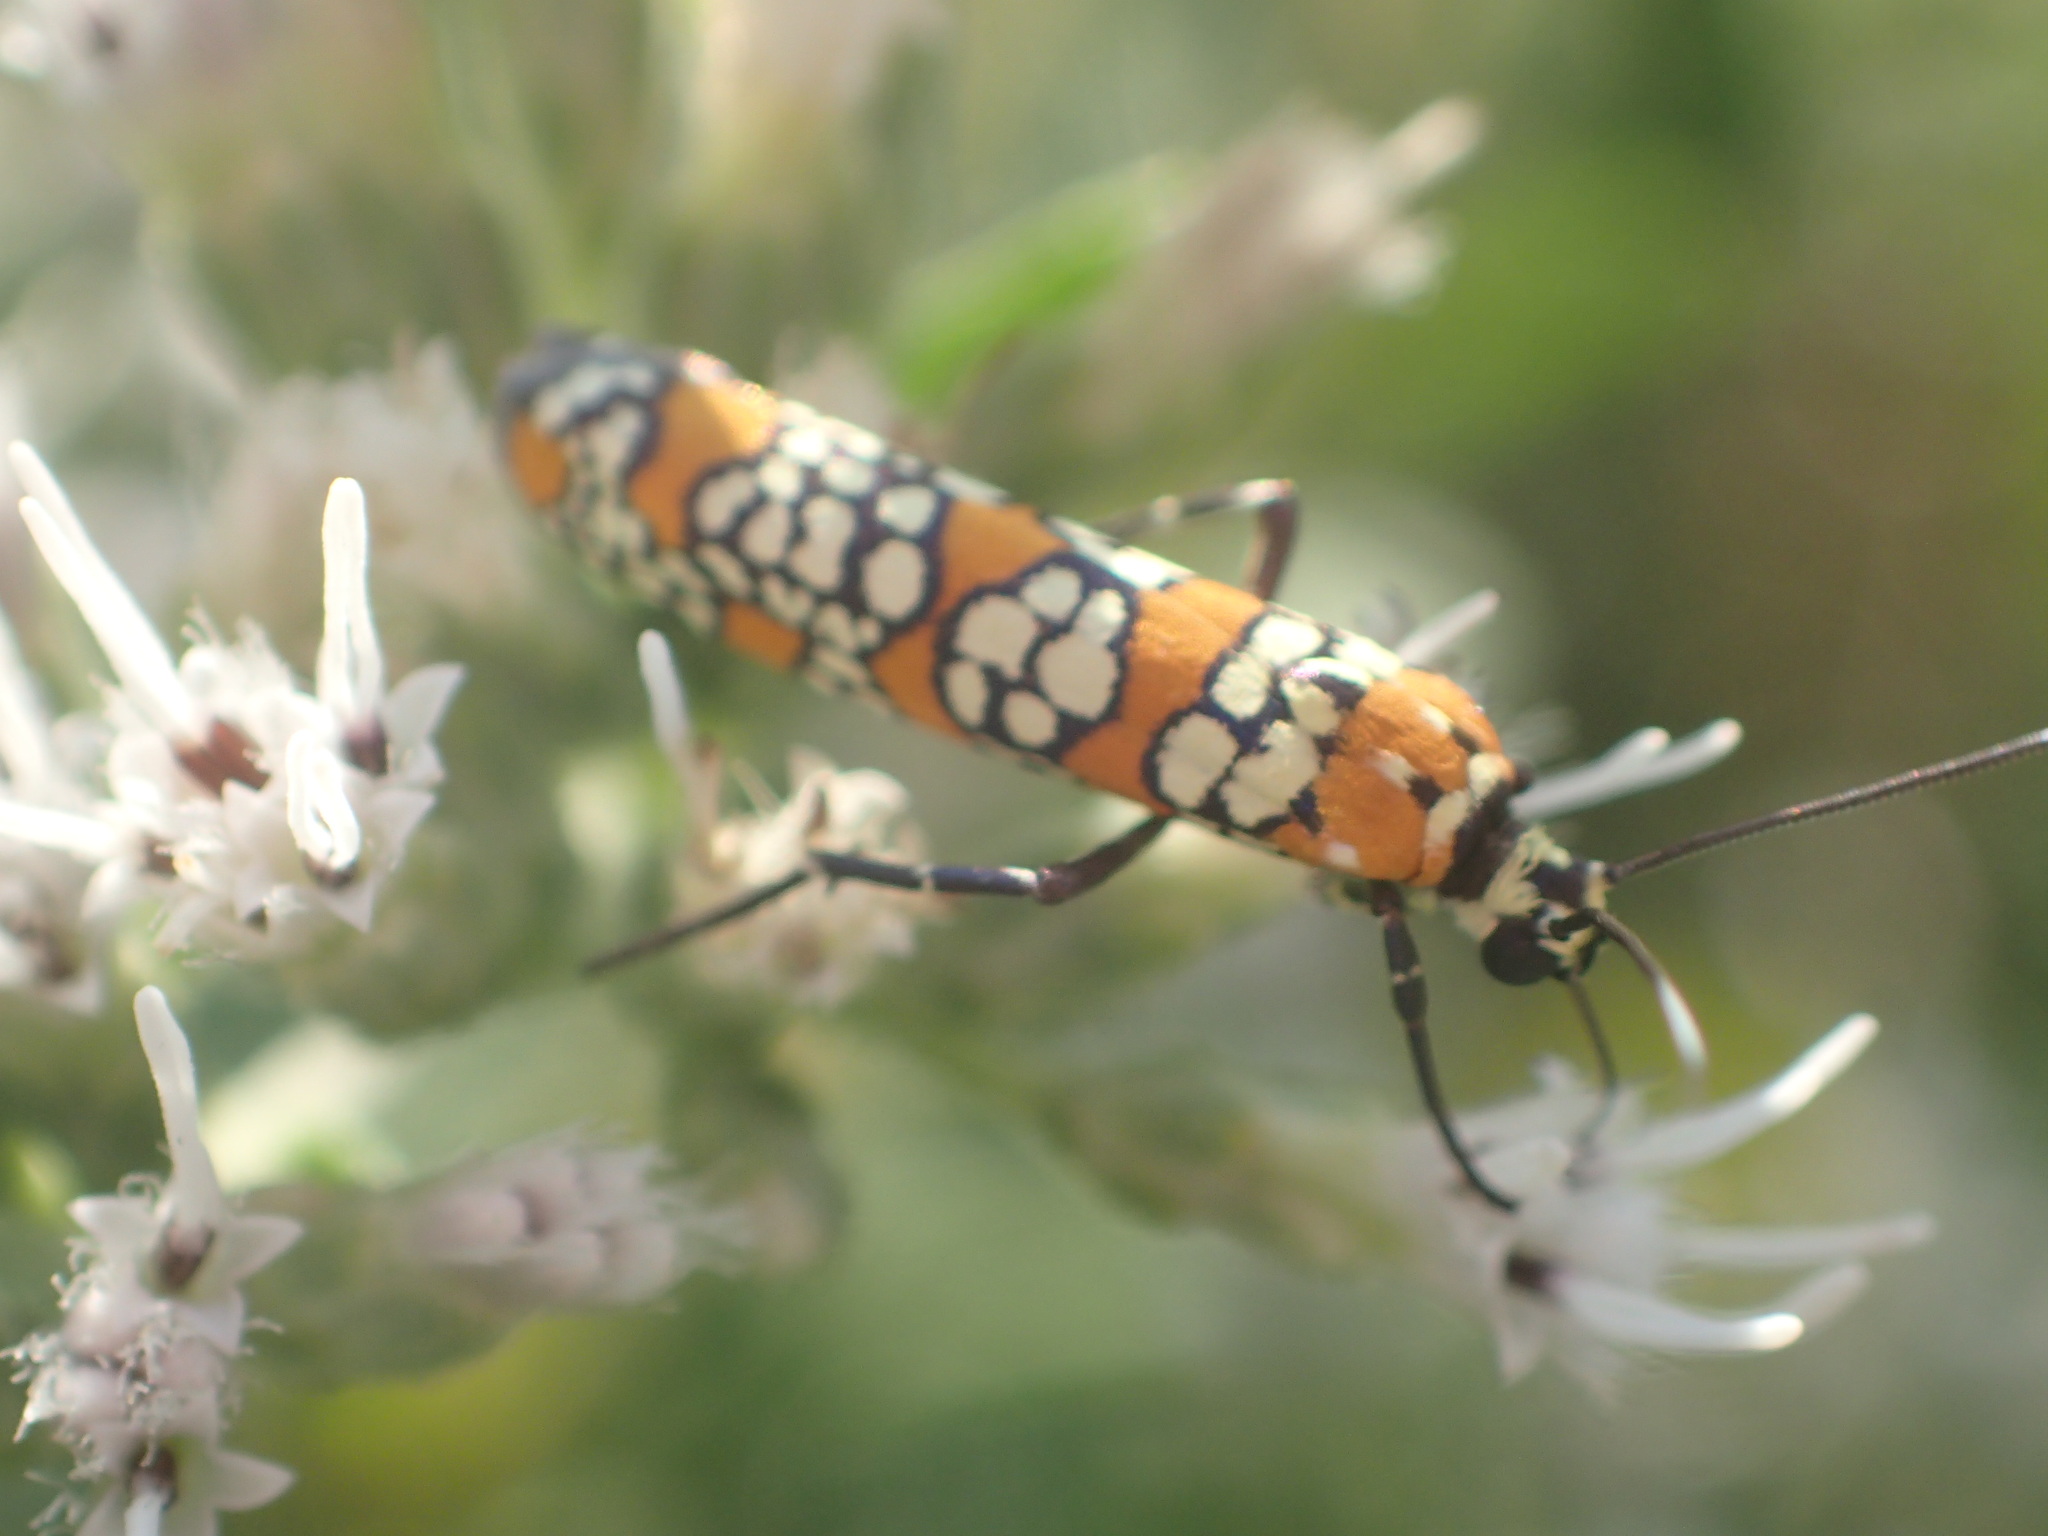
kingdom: Animalia
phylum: Arthropoda
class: Insecta
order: Lepidoptera
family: Attevidae
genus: Atteva
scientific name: Atteva punctella
